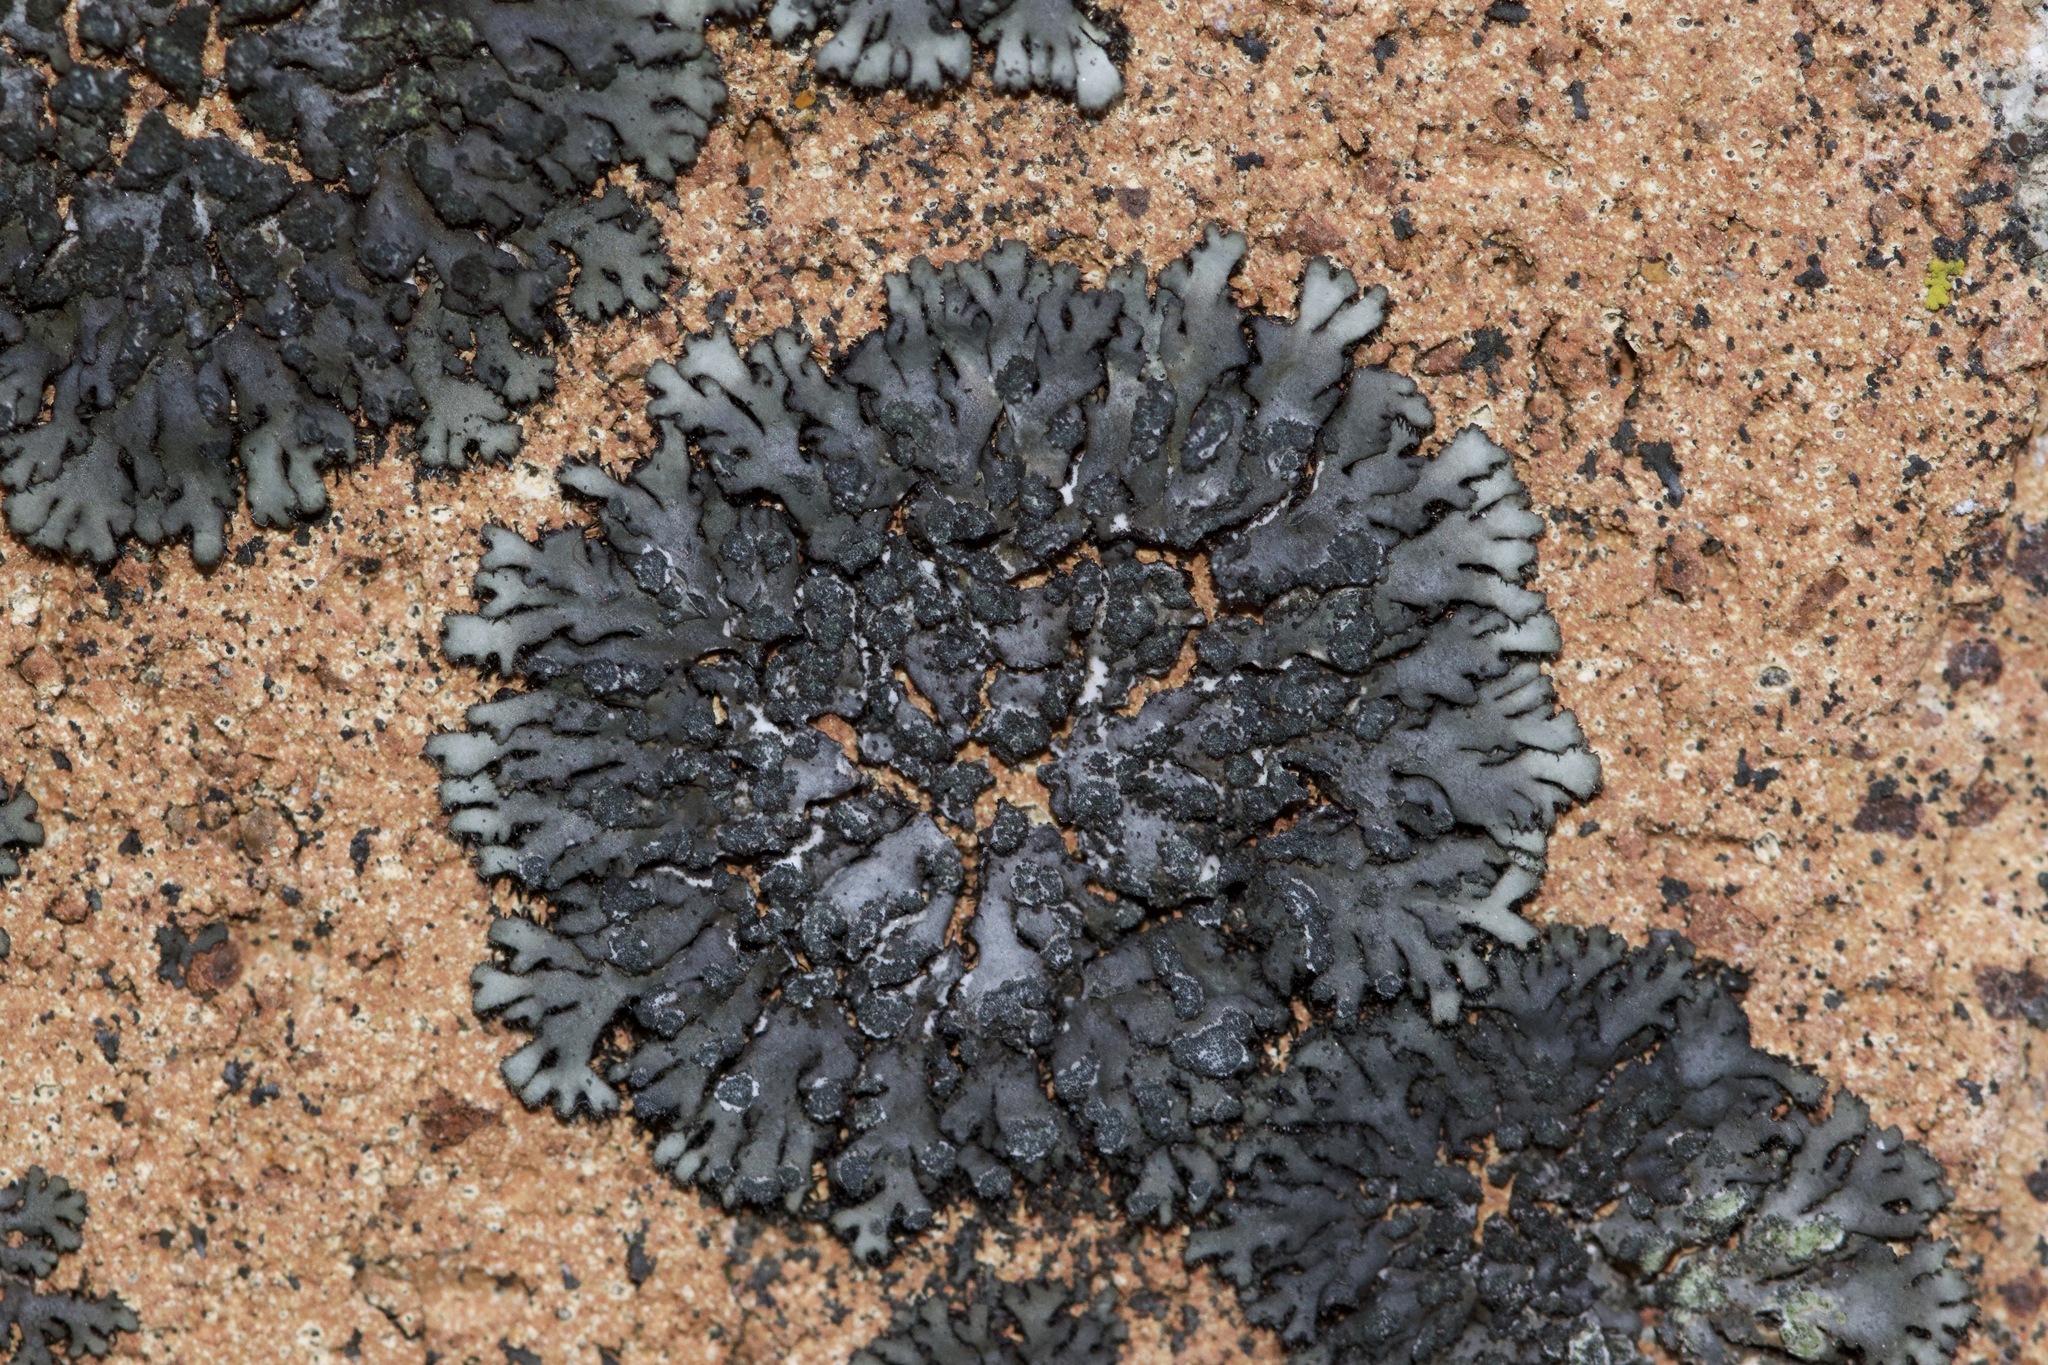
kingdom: Fungi
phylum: Ascomycota
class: Lecanoromycetes
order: Caliciales
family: Physciaceae
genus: Phaeophyscia
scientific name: Phaeophyscia orbicularis
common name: Mealy shadow lichen
